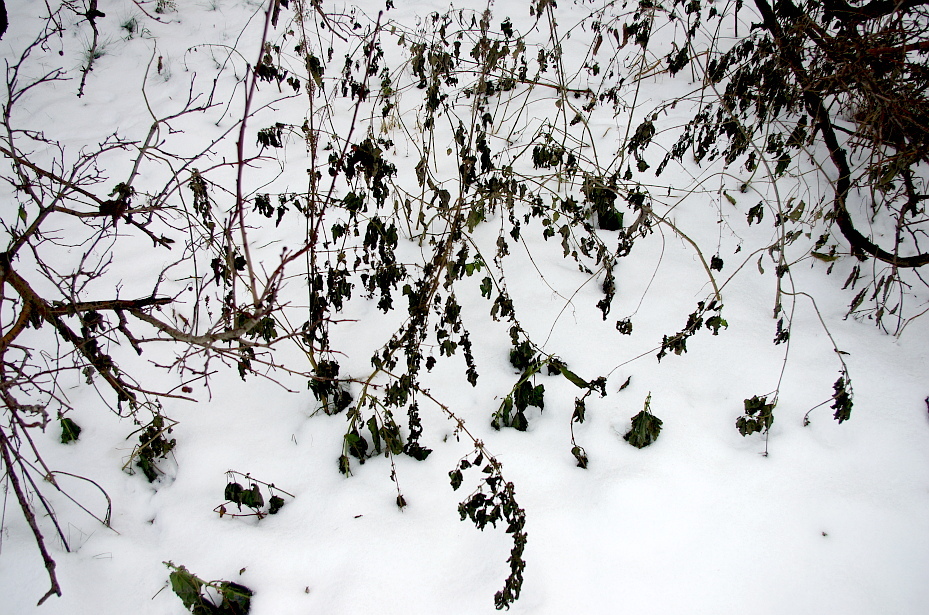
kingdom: Plantae
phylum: Tracheophyta
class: Magnoliopsida
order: Rosales
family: Urticaceae
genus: Urtica
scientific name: Urtica dioica
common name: Common nettle
